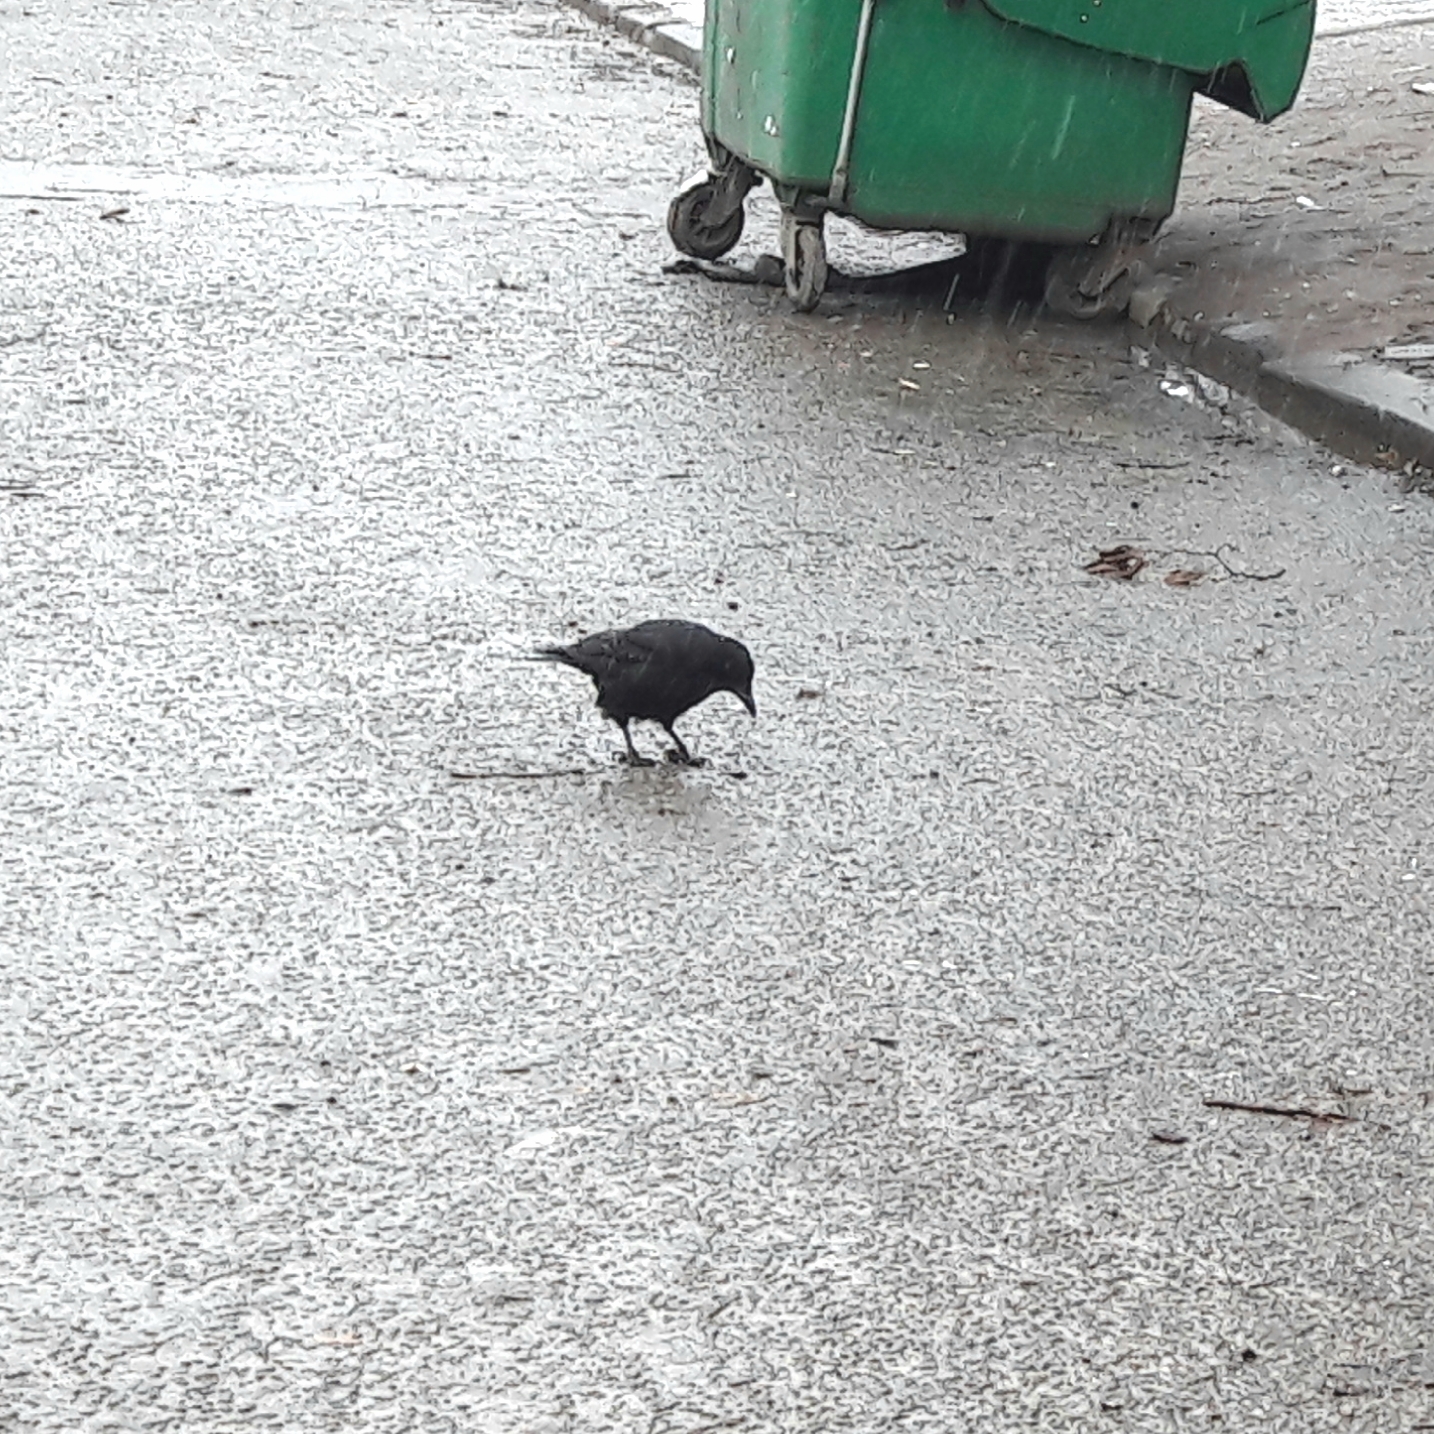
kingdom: Animalia
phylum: Chordata
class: Aves
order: Passeriformes
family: Corvidae
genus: Corvus
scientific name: Corvus corone
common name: Carrion crow
